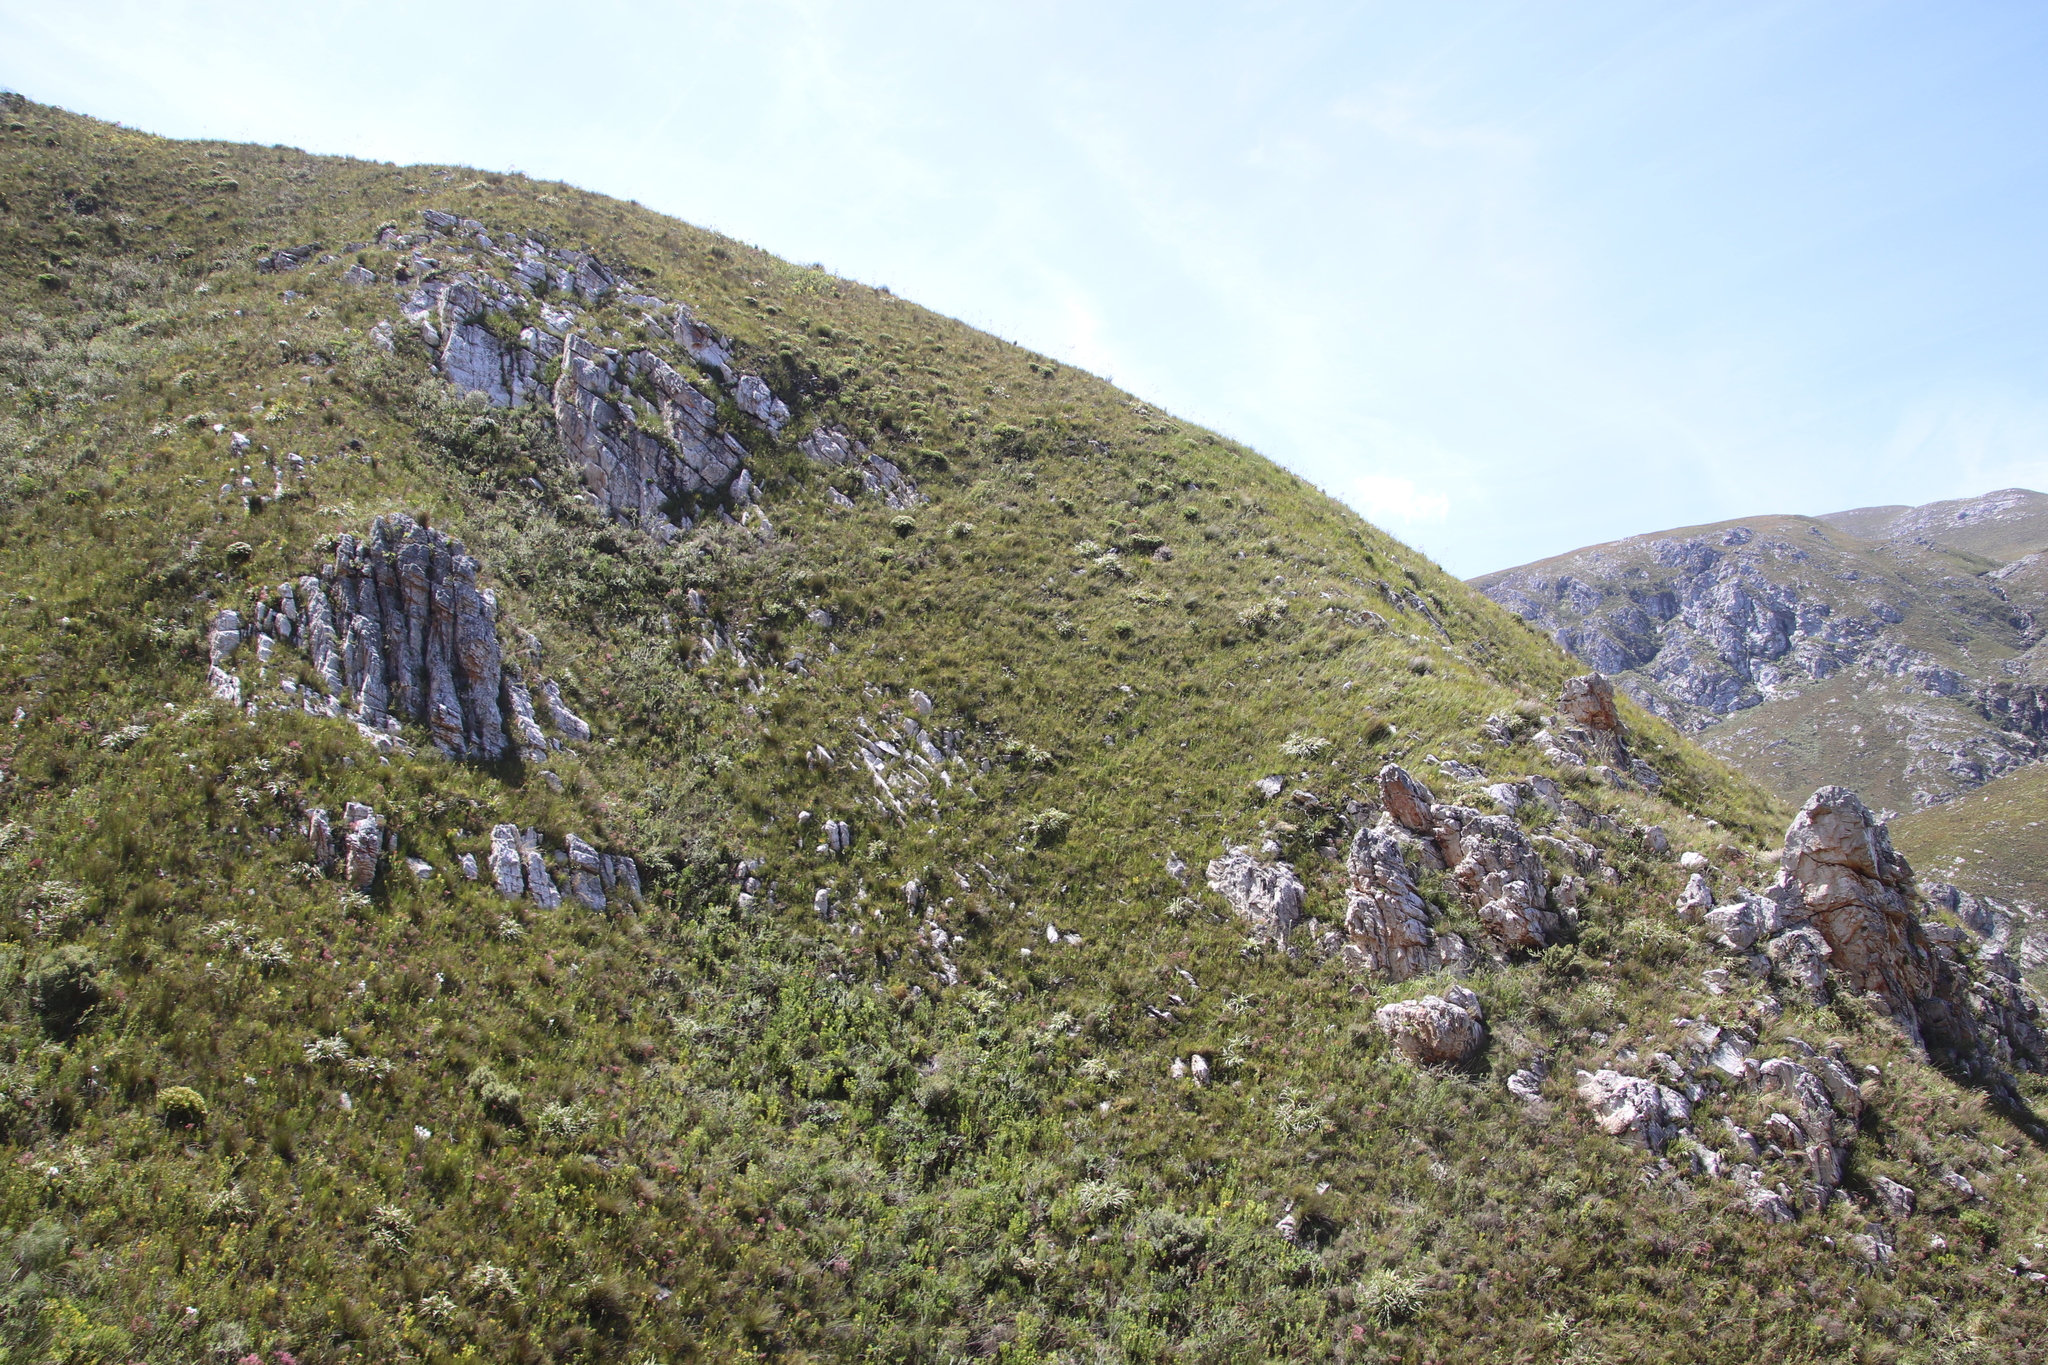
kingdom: Plantae
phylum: Tracheophyta
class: Liliopsida
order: Poales
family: Cyperaceae
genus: Tetraria
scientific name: Tetraria thermalis
